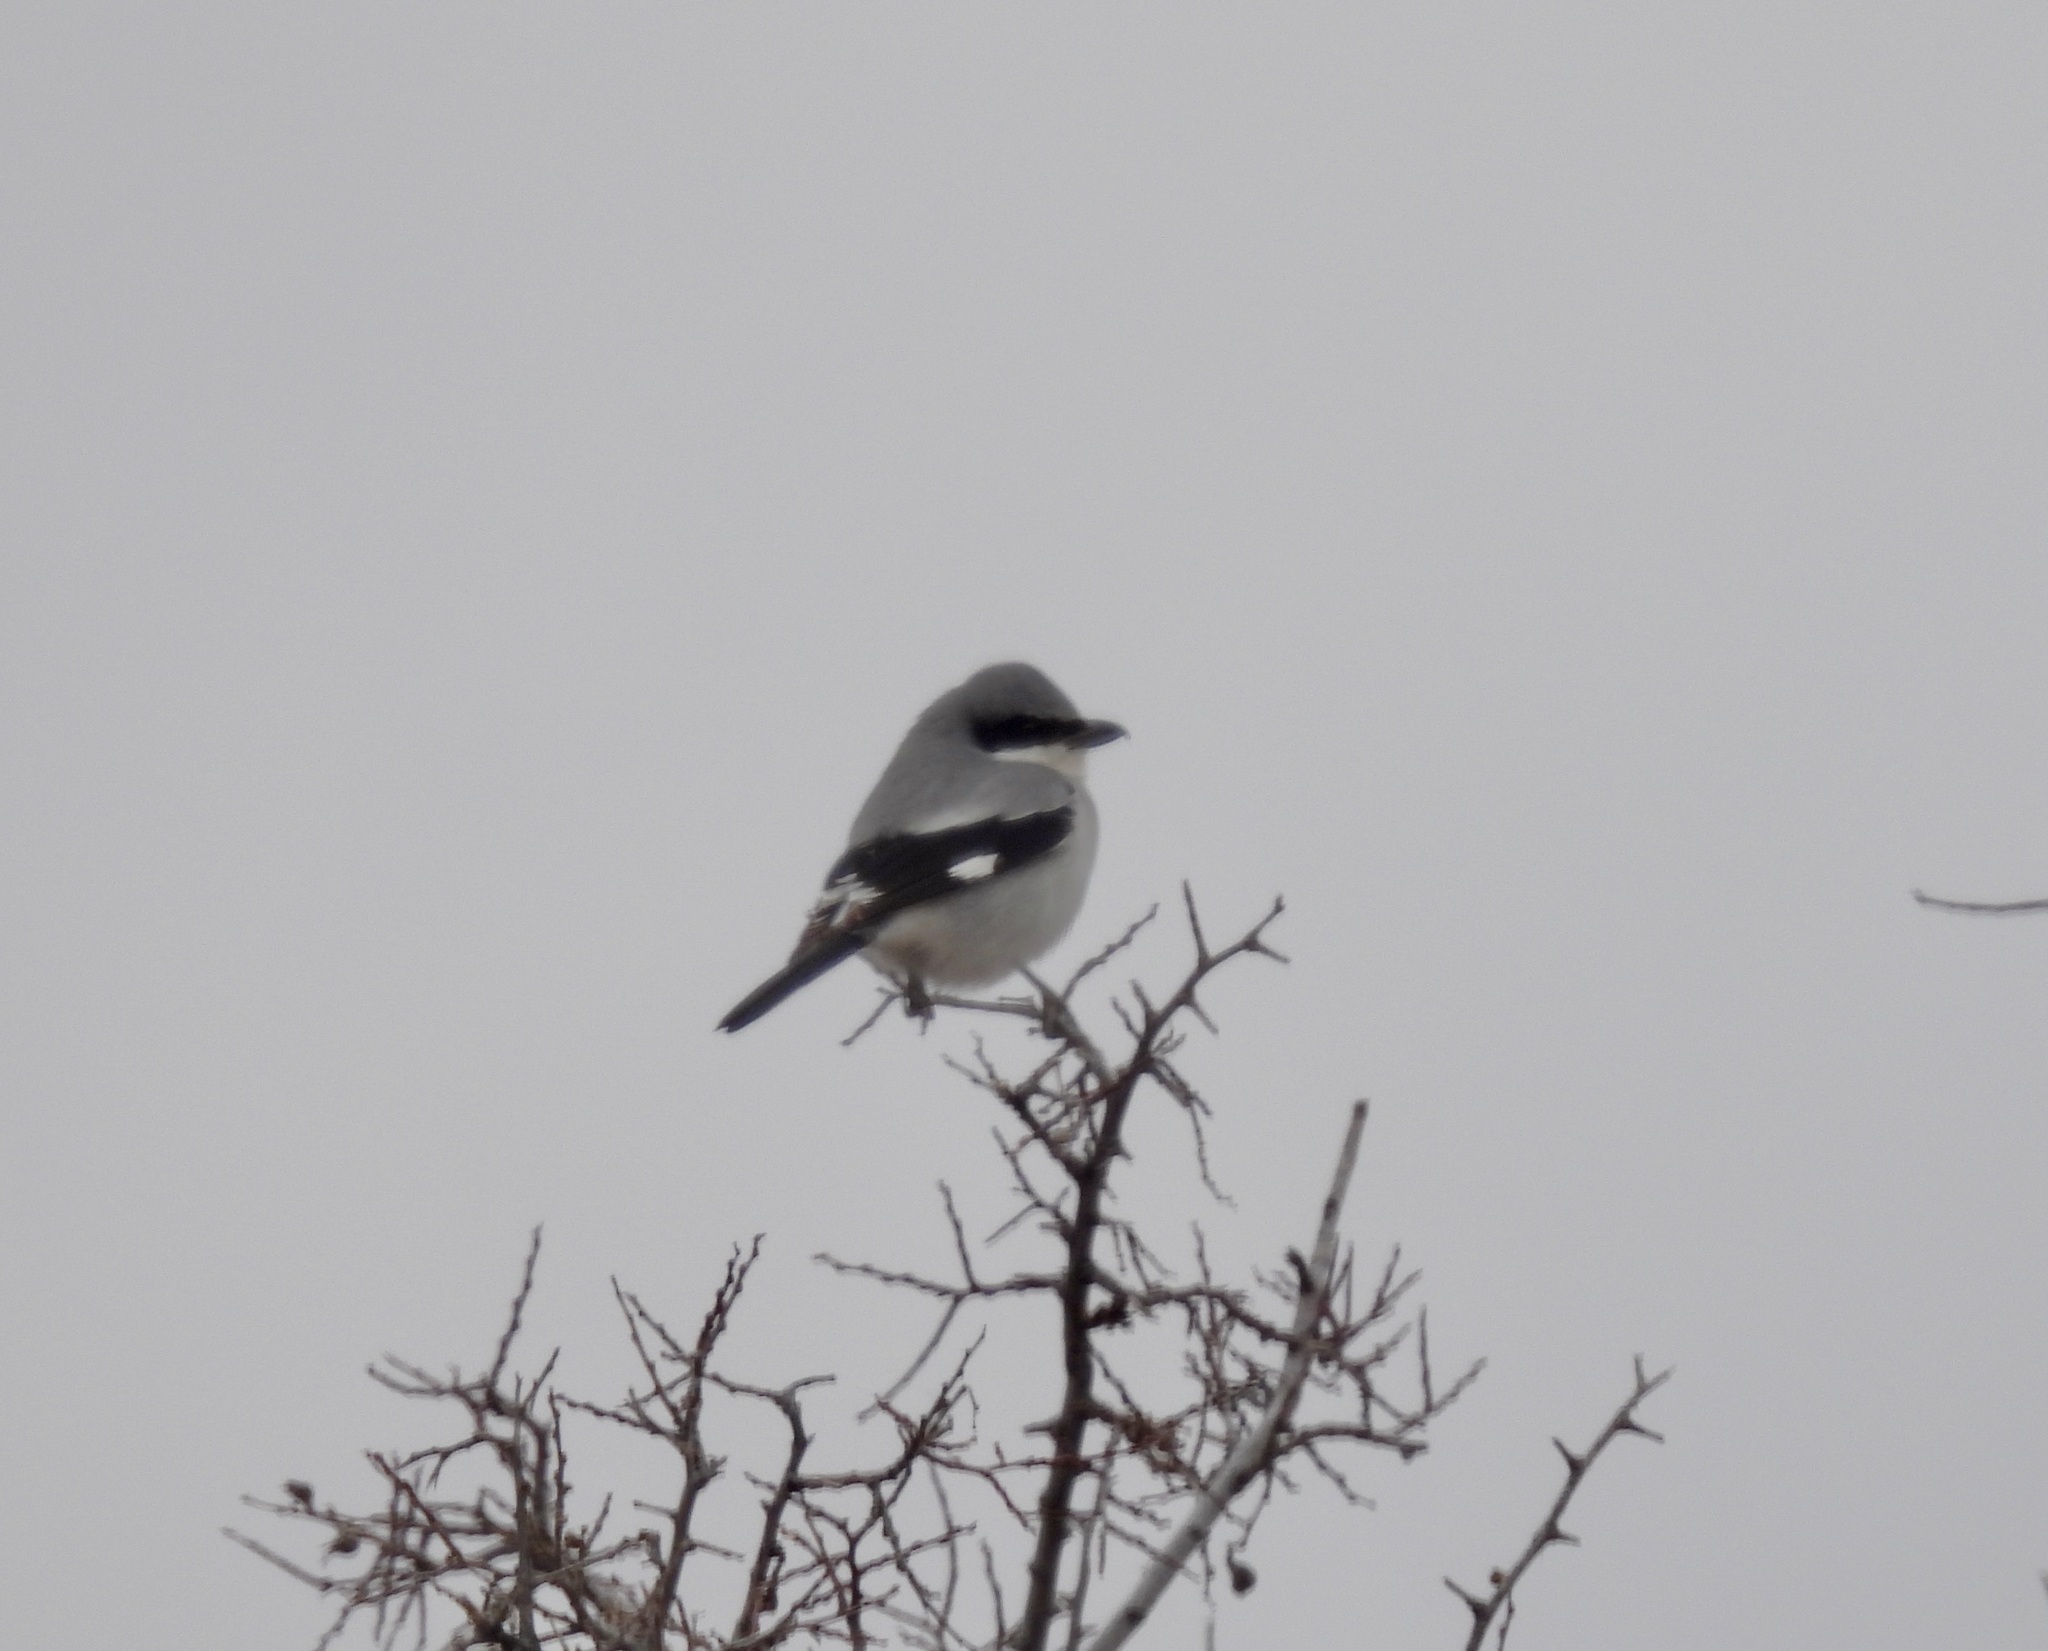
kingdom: Animalia
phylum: Chordata
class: Aves
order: Passeriformes
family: Laniidae
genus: Lanius
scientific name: Lanius ludovicianus
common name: Loggerhead shrike
